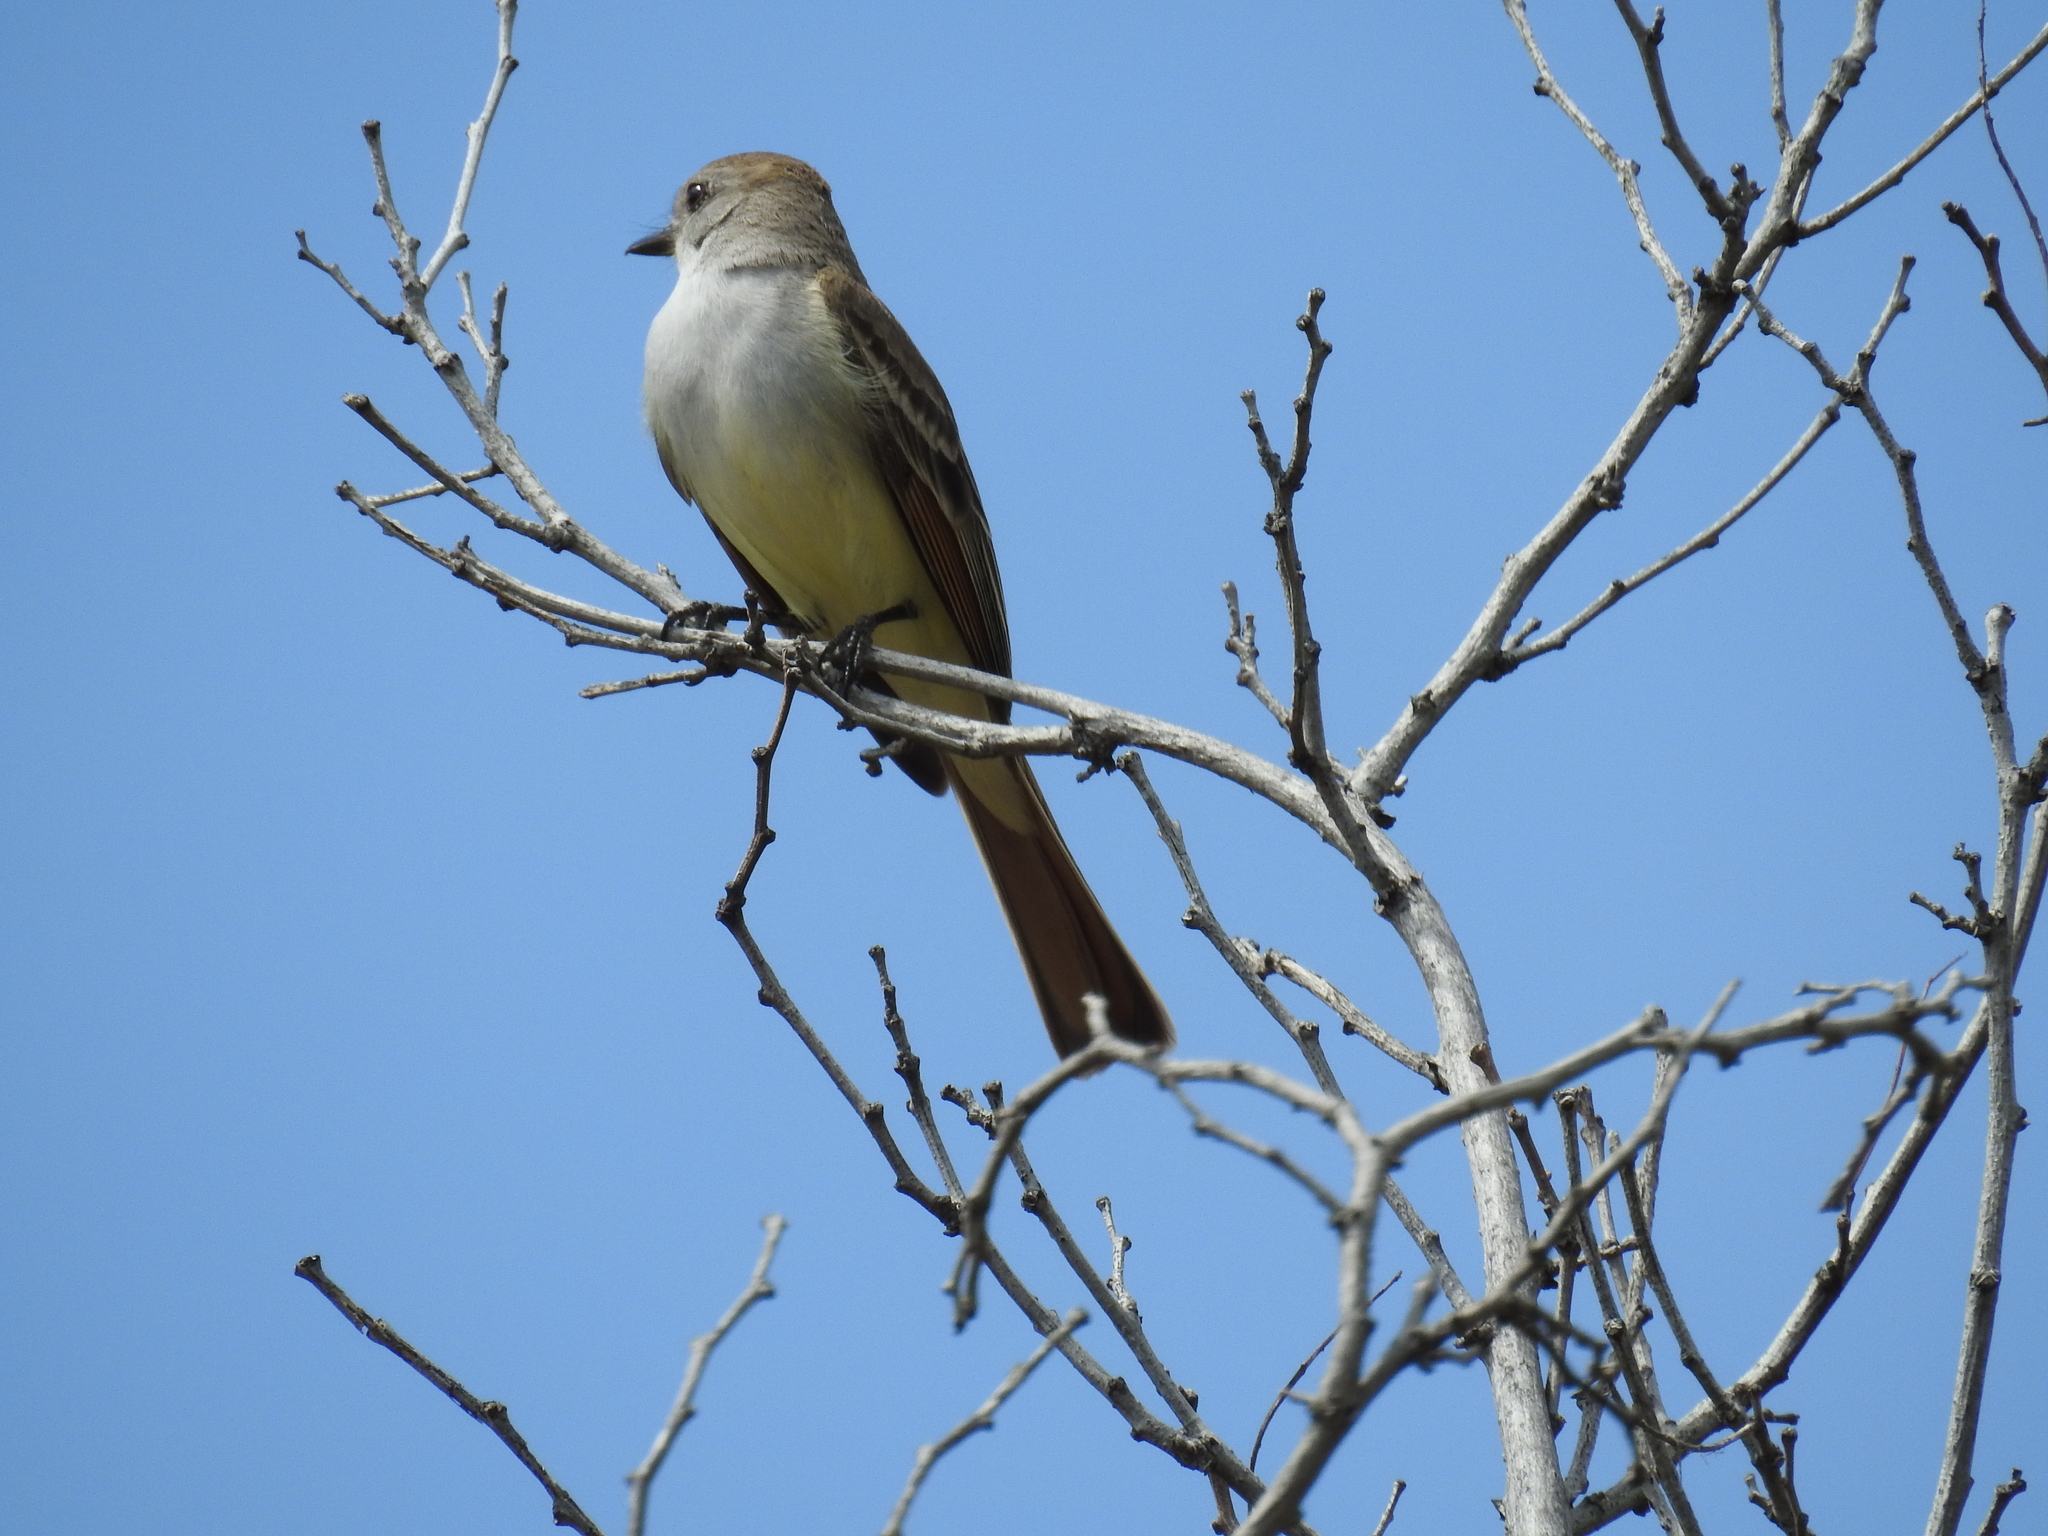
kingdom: Animalia
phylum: Chordata
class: Aves
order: Passeriformes
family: Tyrannidae
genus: Myiarchus
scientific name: Myiarchus cinerascens
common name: Ash-throated flycatcher
